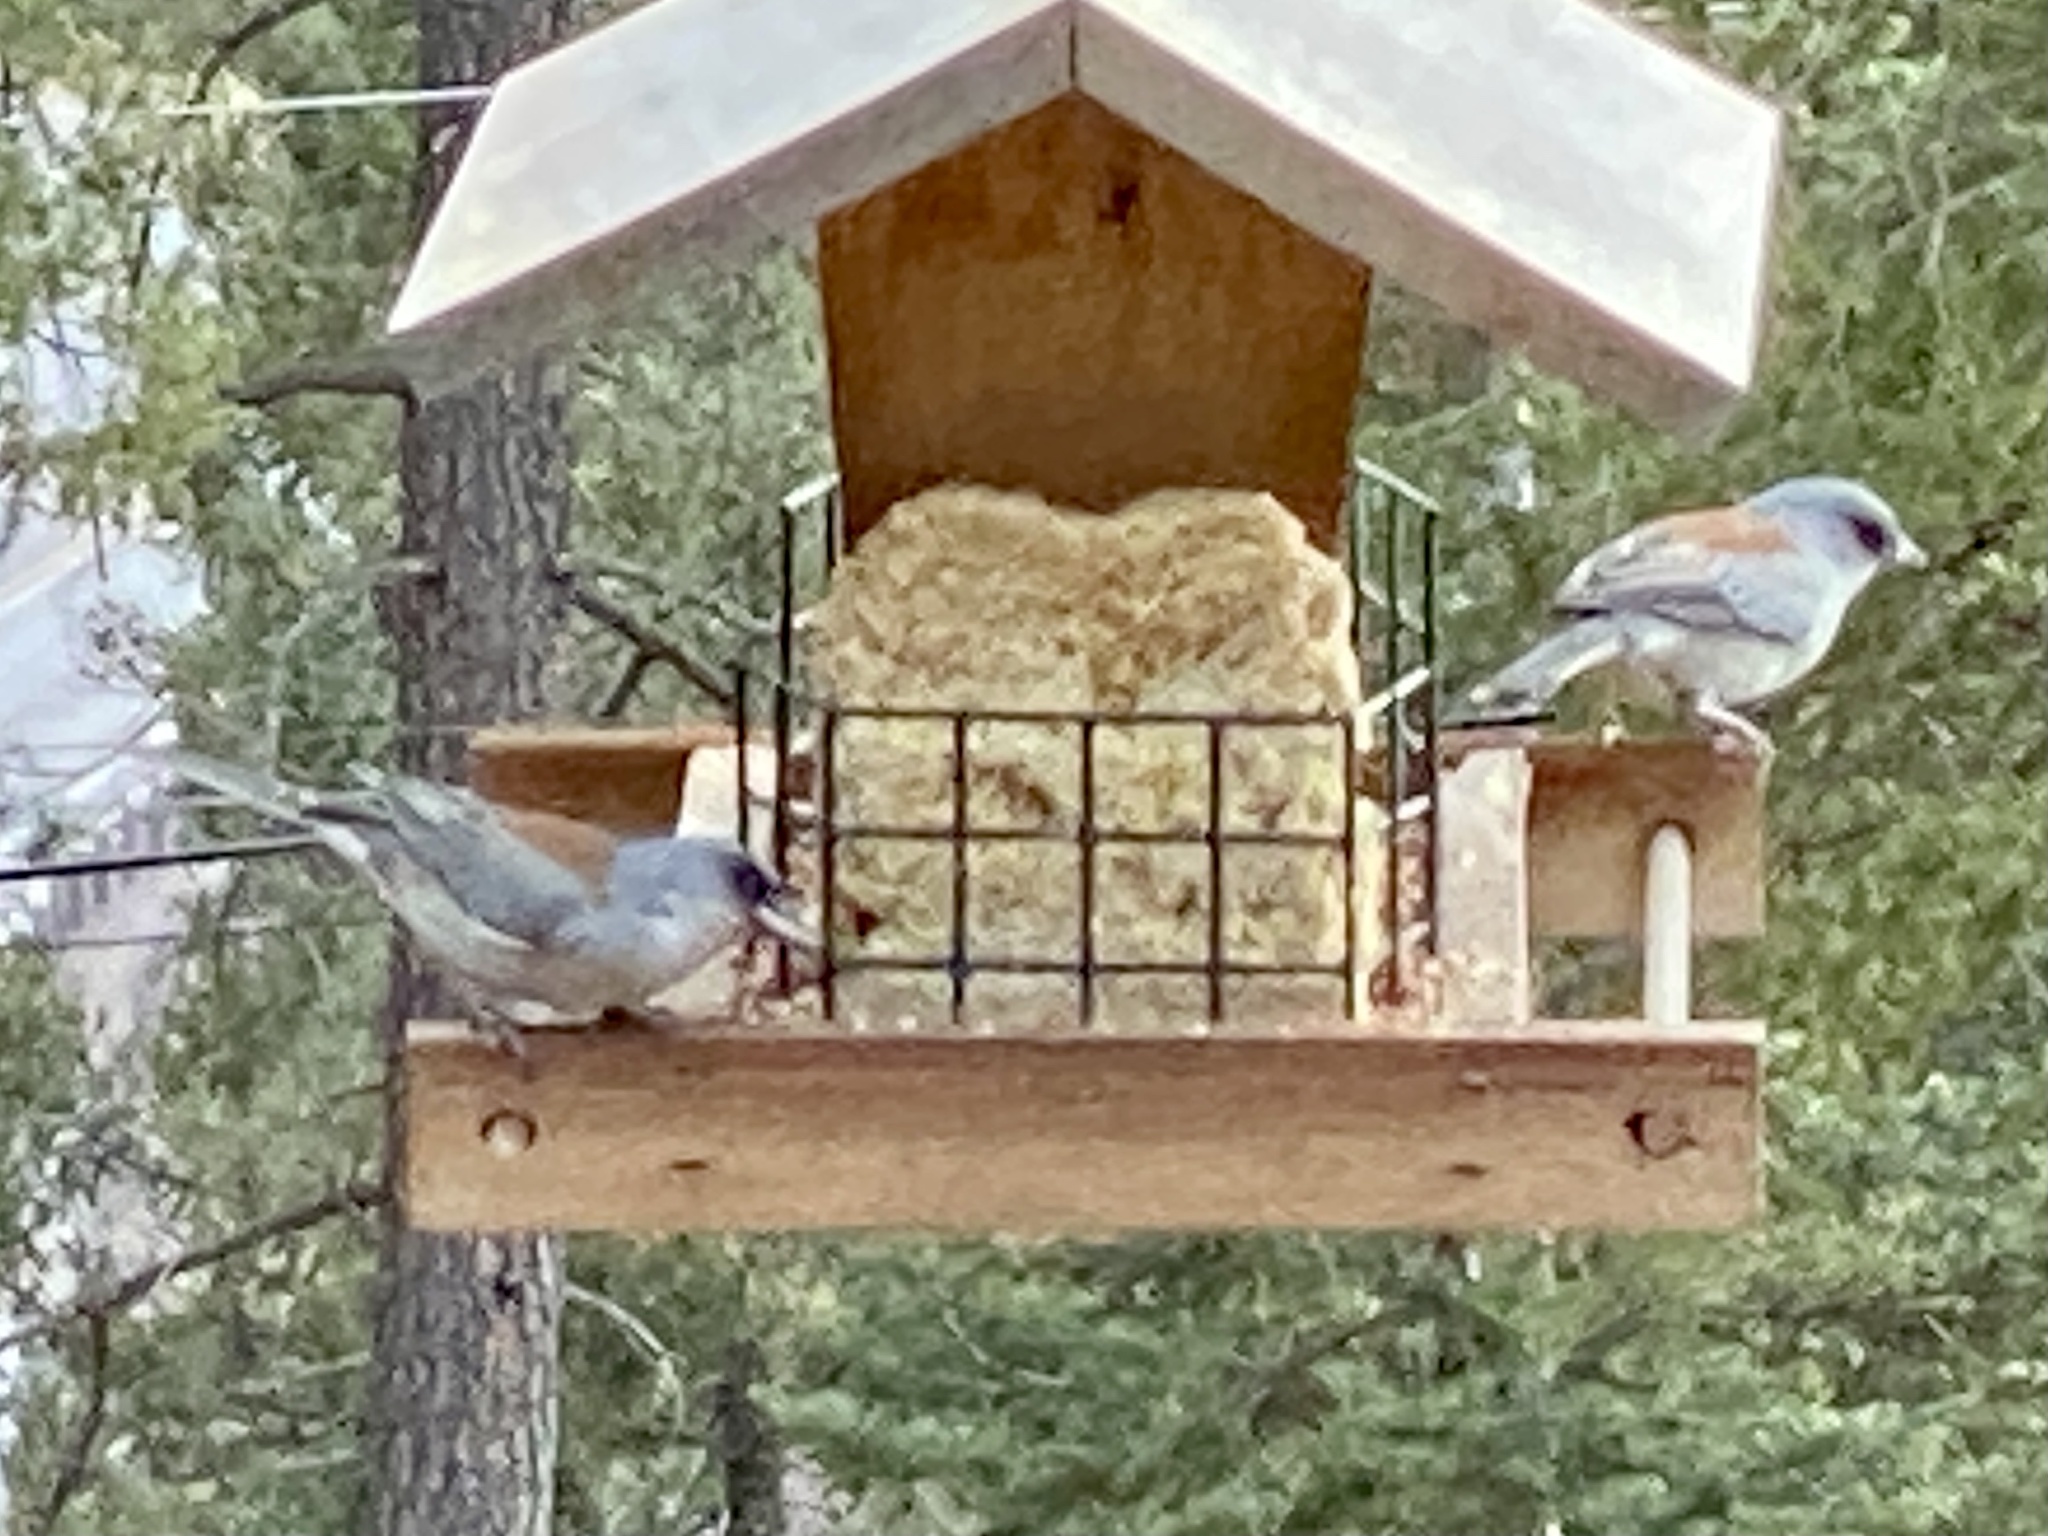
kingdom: Animalia
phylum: Chordata
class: Aves
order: Passeriformes
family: Passerellidae
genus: Junco
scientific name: Junco hyemalis
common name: Dark-eyed junco
